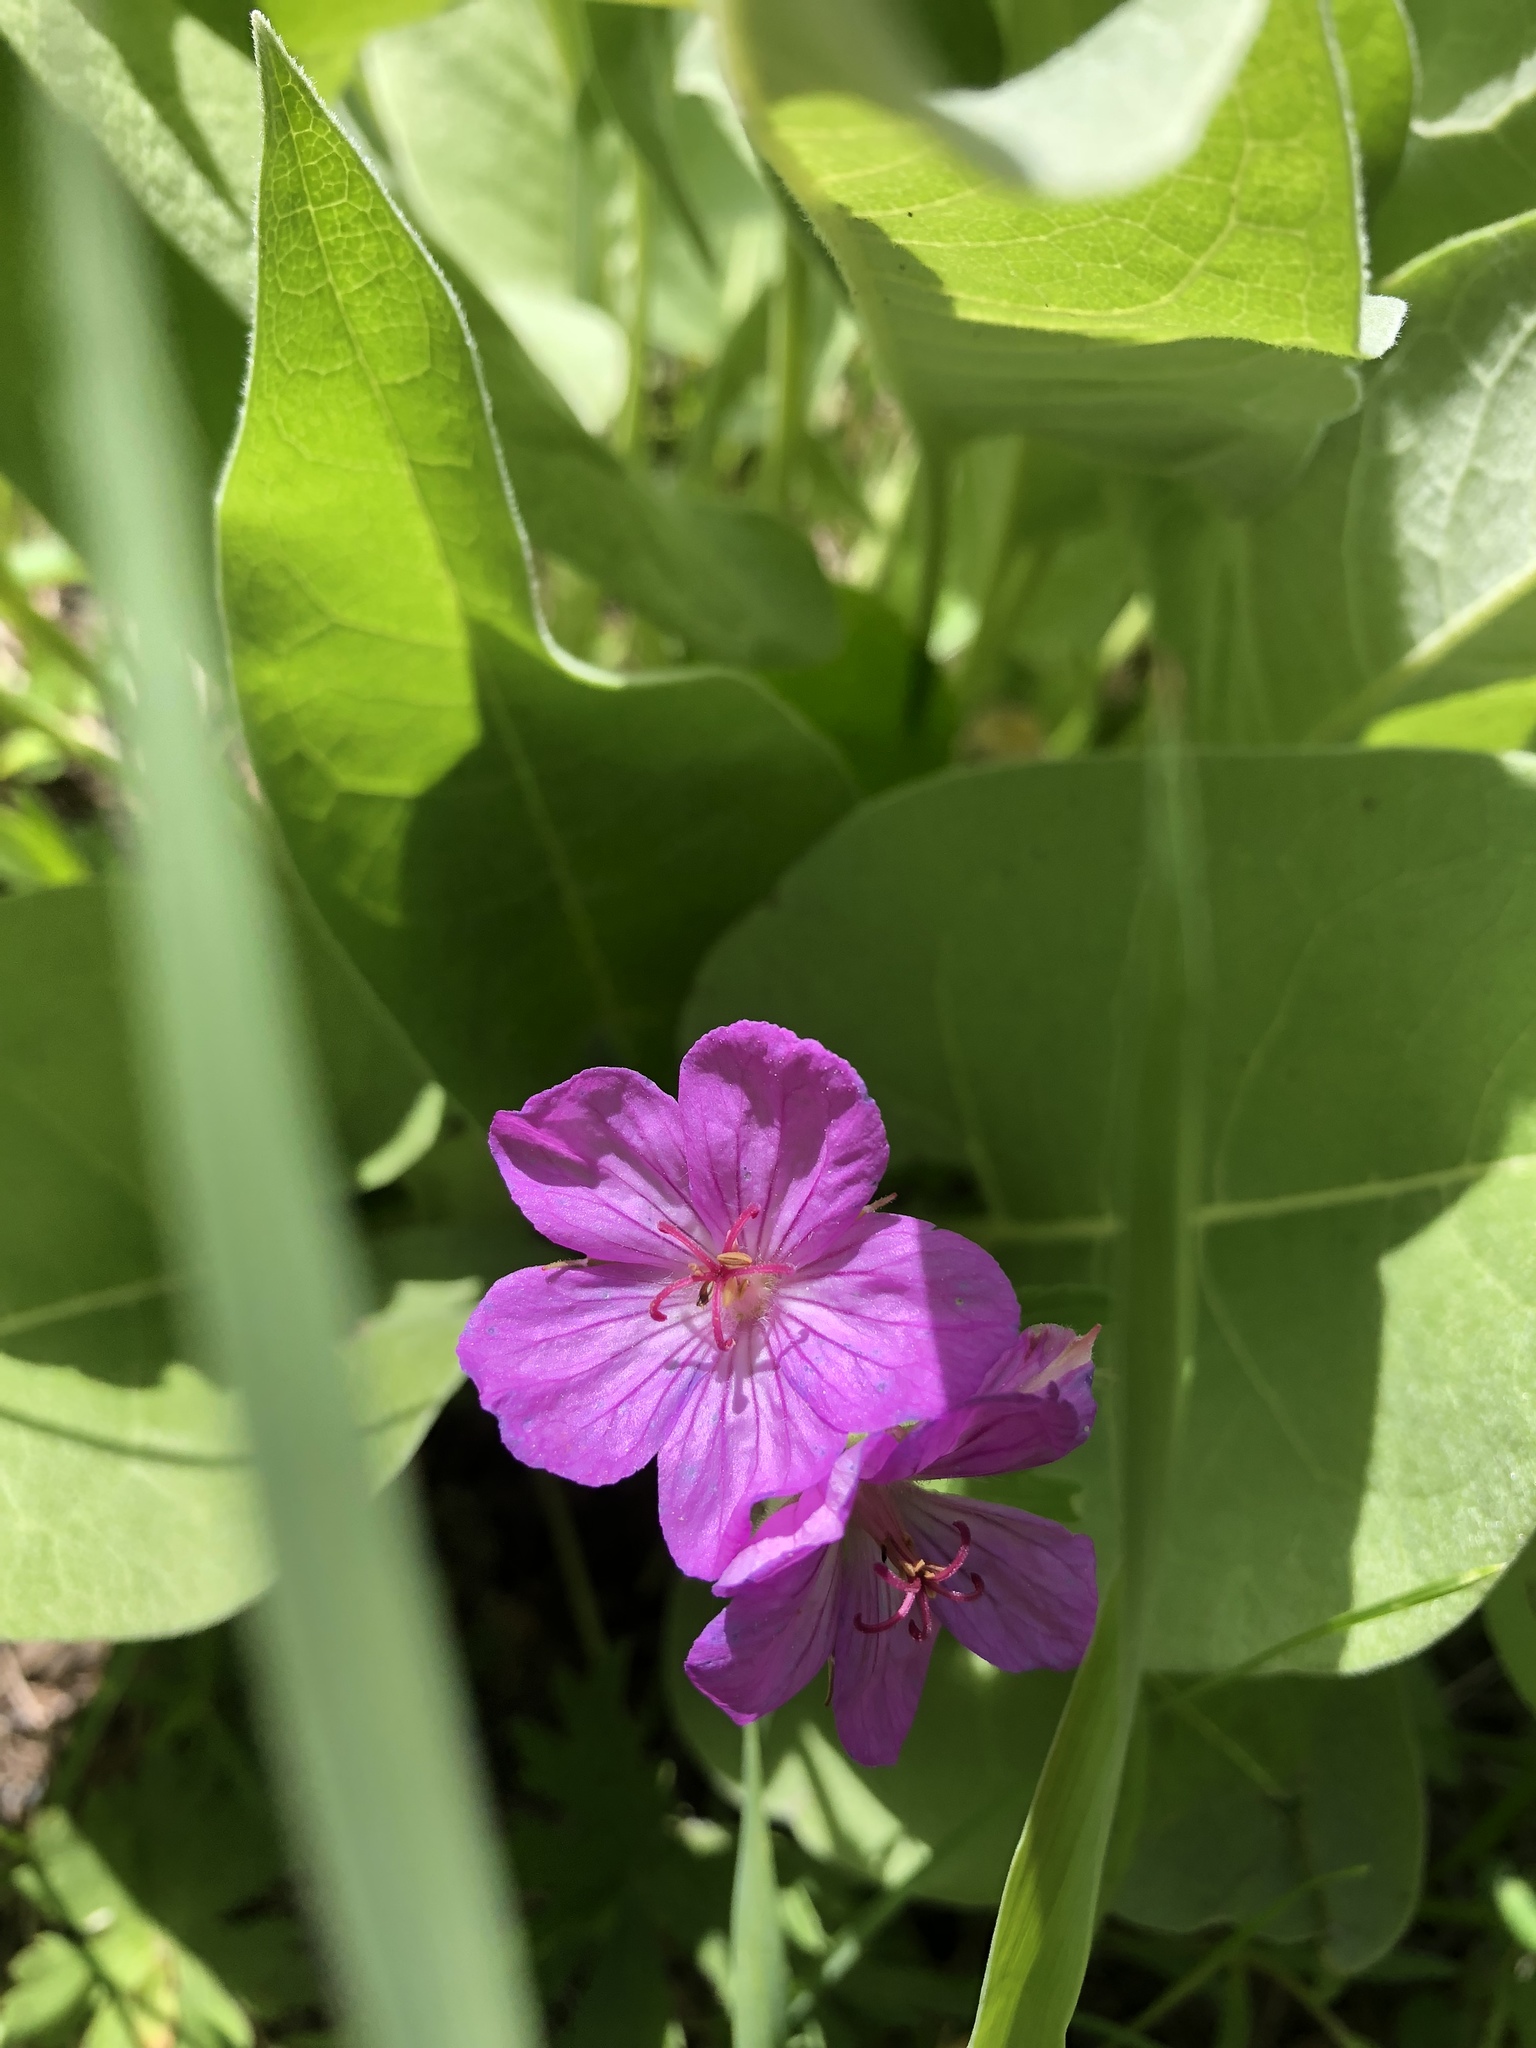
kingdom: Plantae
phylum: Tracheophyta
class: Magnoliopsida
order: Geraniales
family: Geraniaceae
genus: Geranium
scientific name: Geranium viscosissimum
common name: Purple geranium
